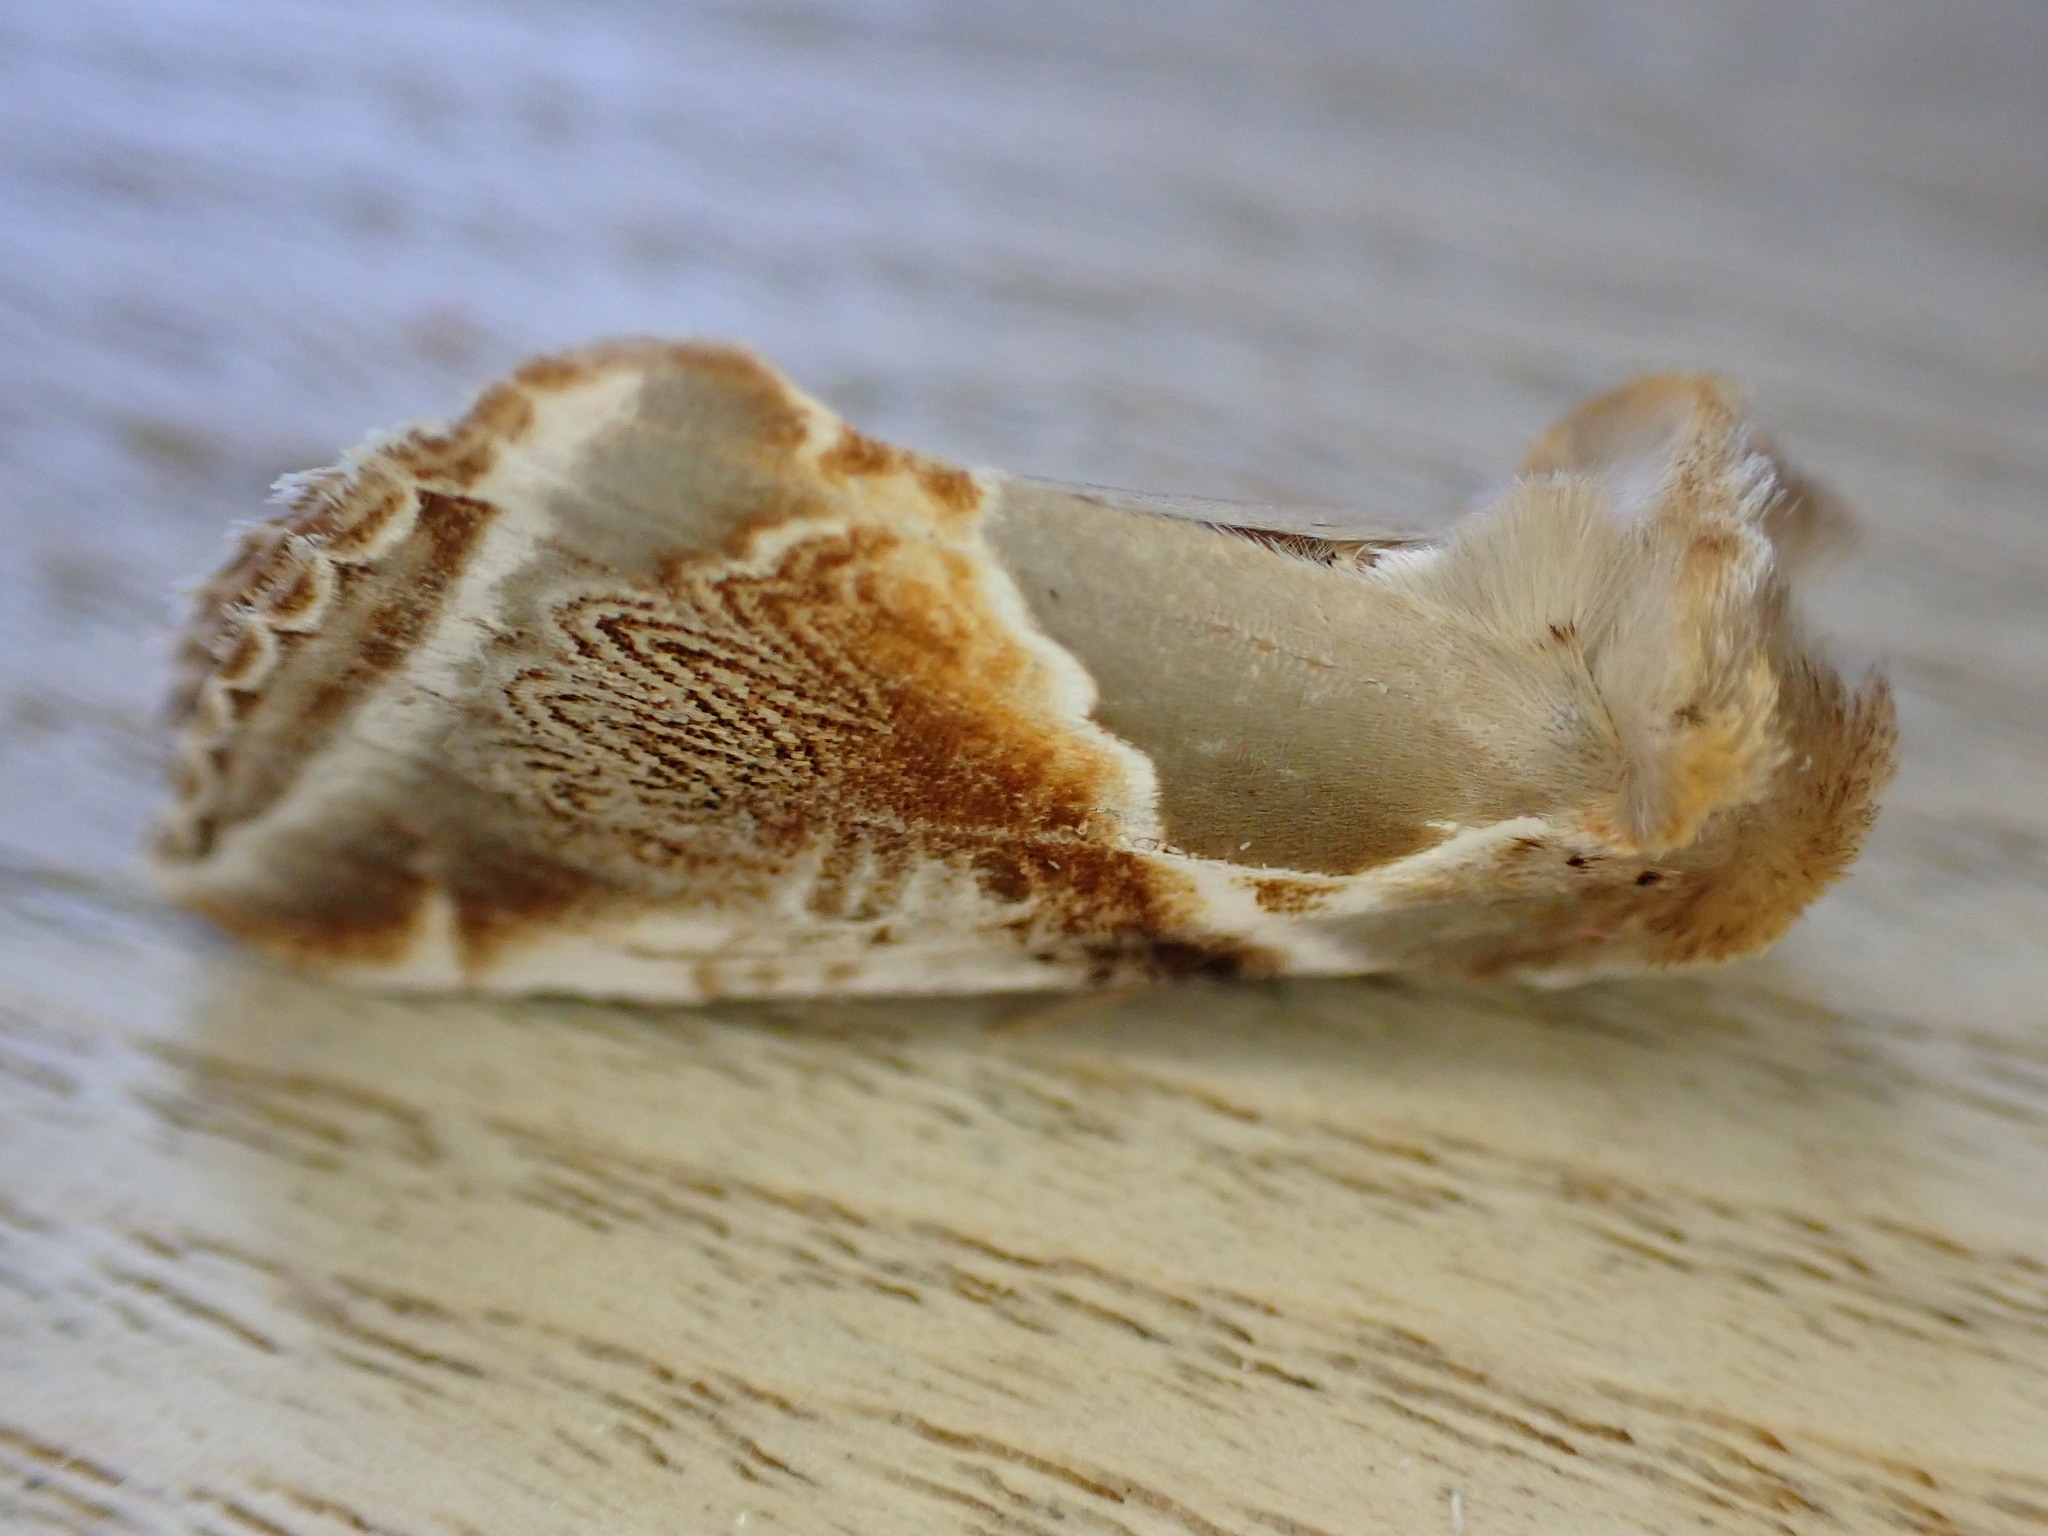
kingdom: Animalia
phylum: Arthropoda
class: Insecta
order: Lepidoptera
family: Drepanidae
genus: Habrosyne
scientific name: Habrosyne pyritoides
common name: Buff arches
